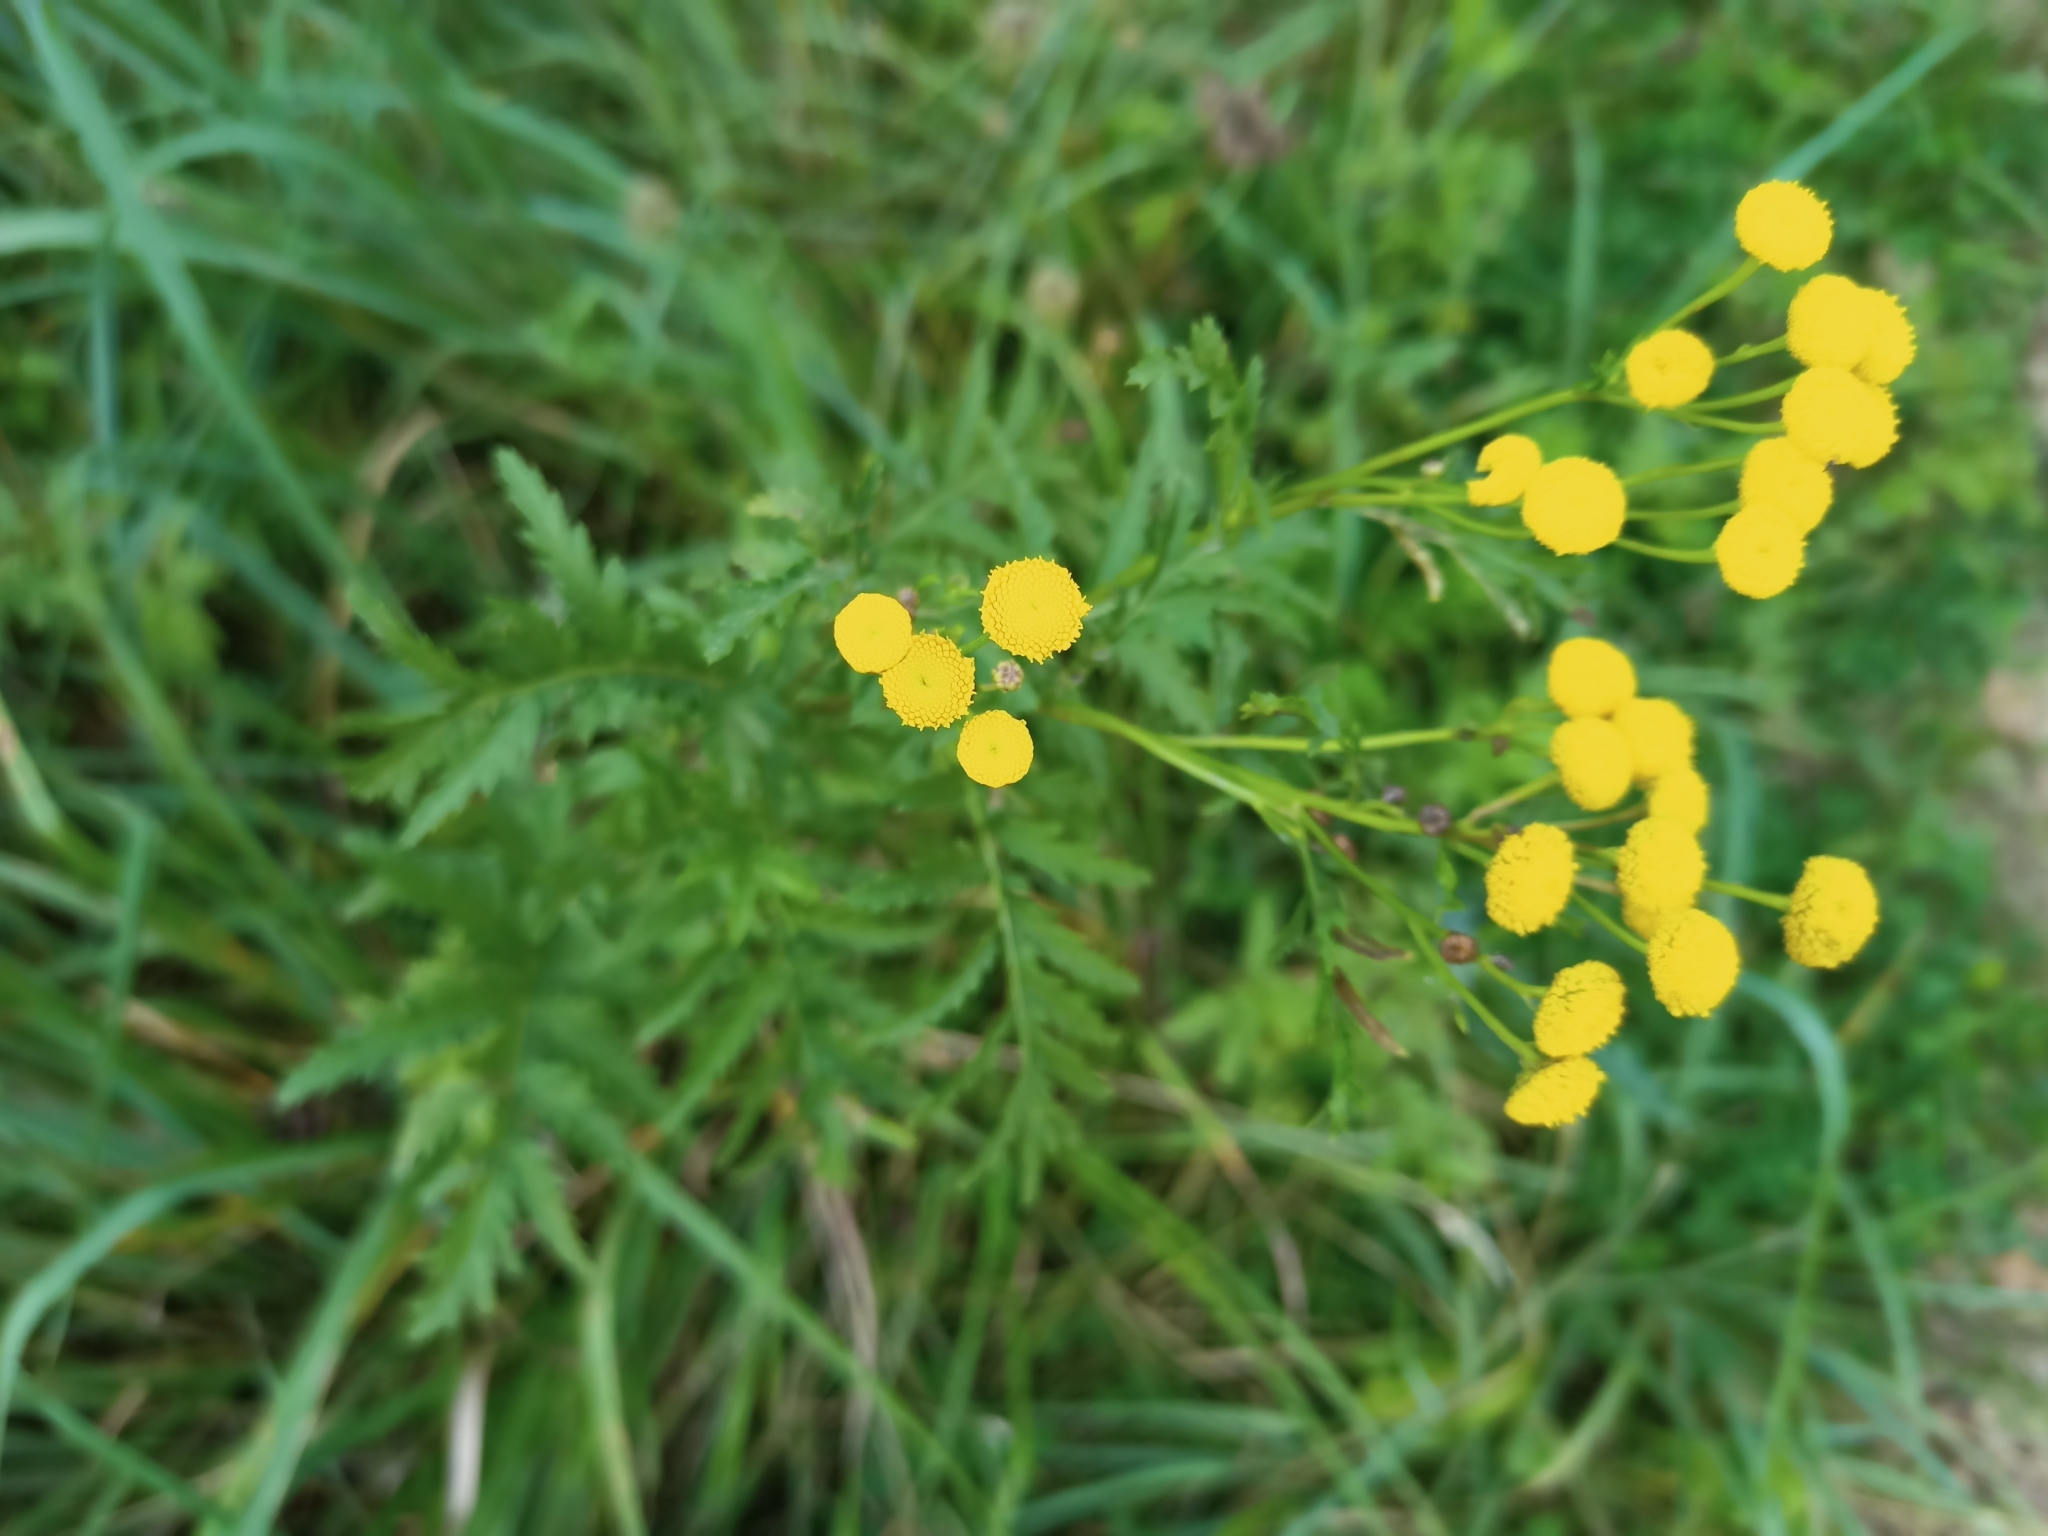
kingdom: Plantae
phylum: Tracheophyta
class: Magnoliopsida
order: Asterales
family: Asteraceae
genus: Tanacetum
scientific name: Tanacetum vulgare
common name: Common tansy
